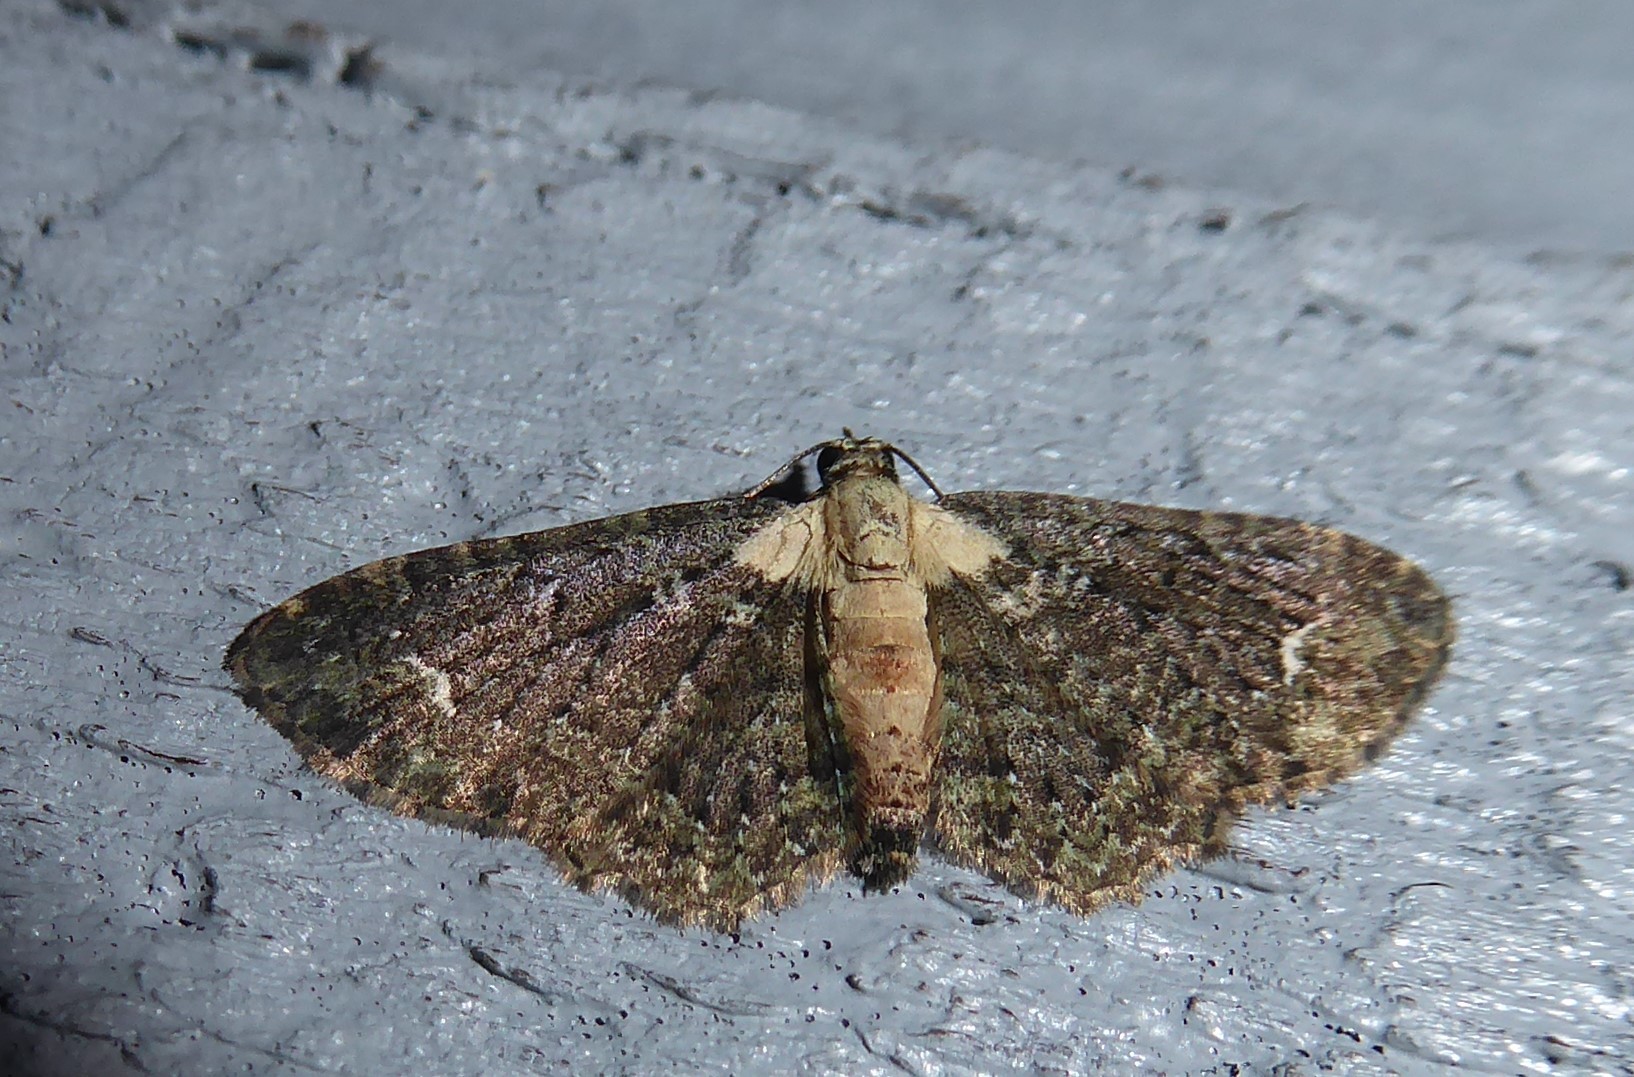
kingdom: Animalia
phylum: Arthropoda
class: Insecta
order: Lepidoptera
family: Geometridae
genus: Pasiphilodes
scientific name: Pasiphilodes testulata
